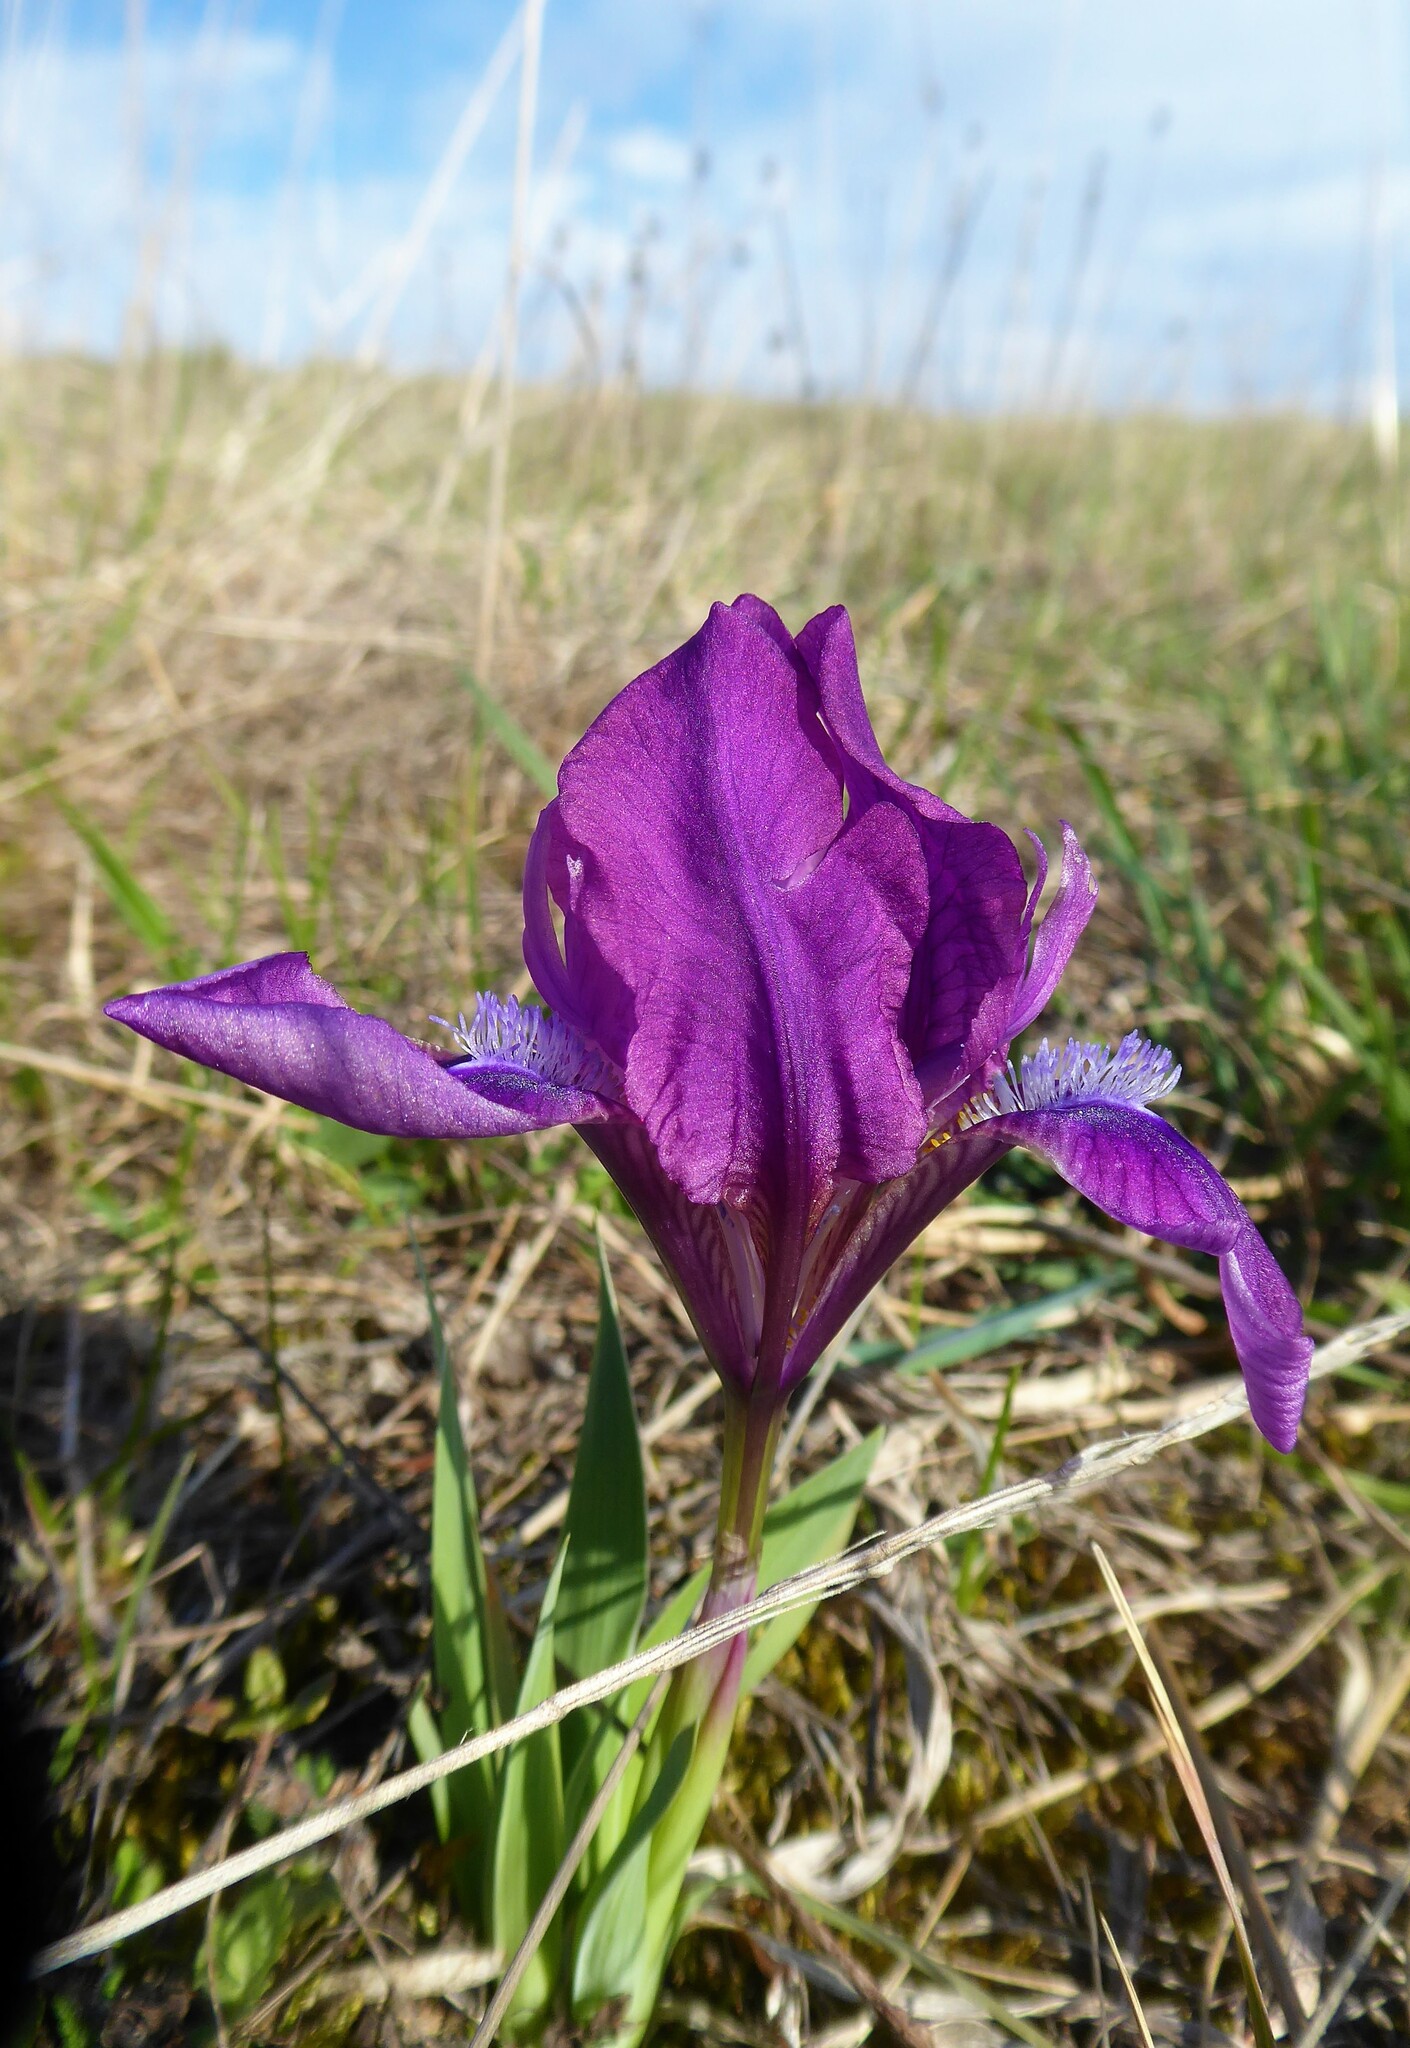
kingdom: Plantae
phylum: Tracheophyta
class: Liliopsida
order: Asparagales
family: Iridaceae
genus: Iris
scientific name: Iris pumila
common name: Dwarf iris
